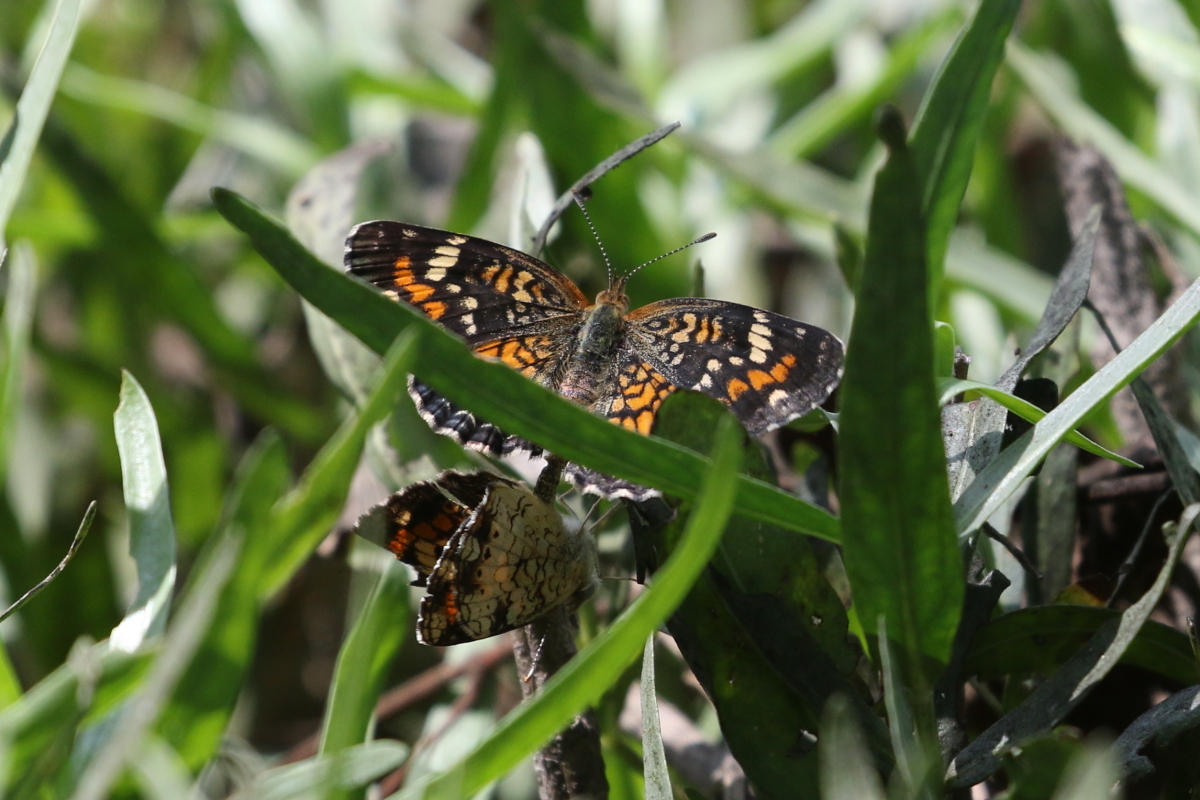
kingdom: Animalia
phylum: Arthropoda
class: Insecta
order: Lepidoptera
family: Nymphalidae
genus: Phyciodes
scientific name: Phyciodes phaon
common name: Phaon crescent
